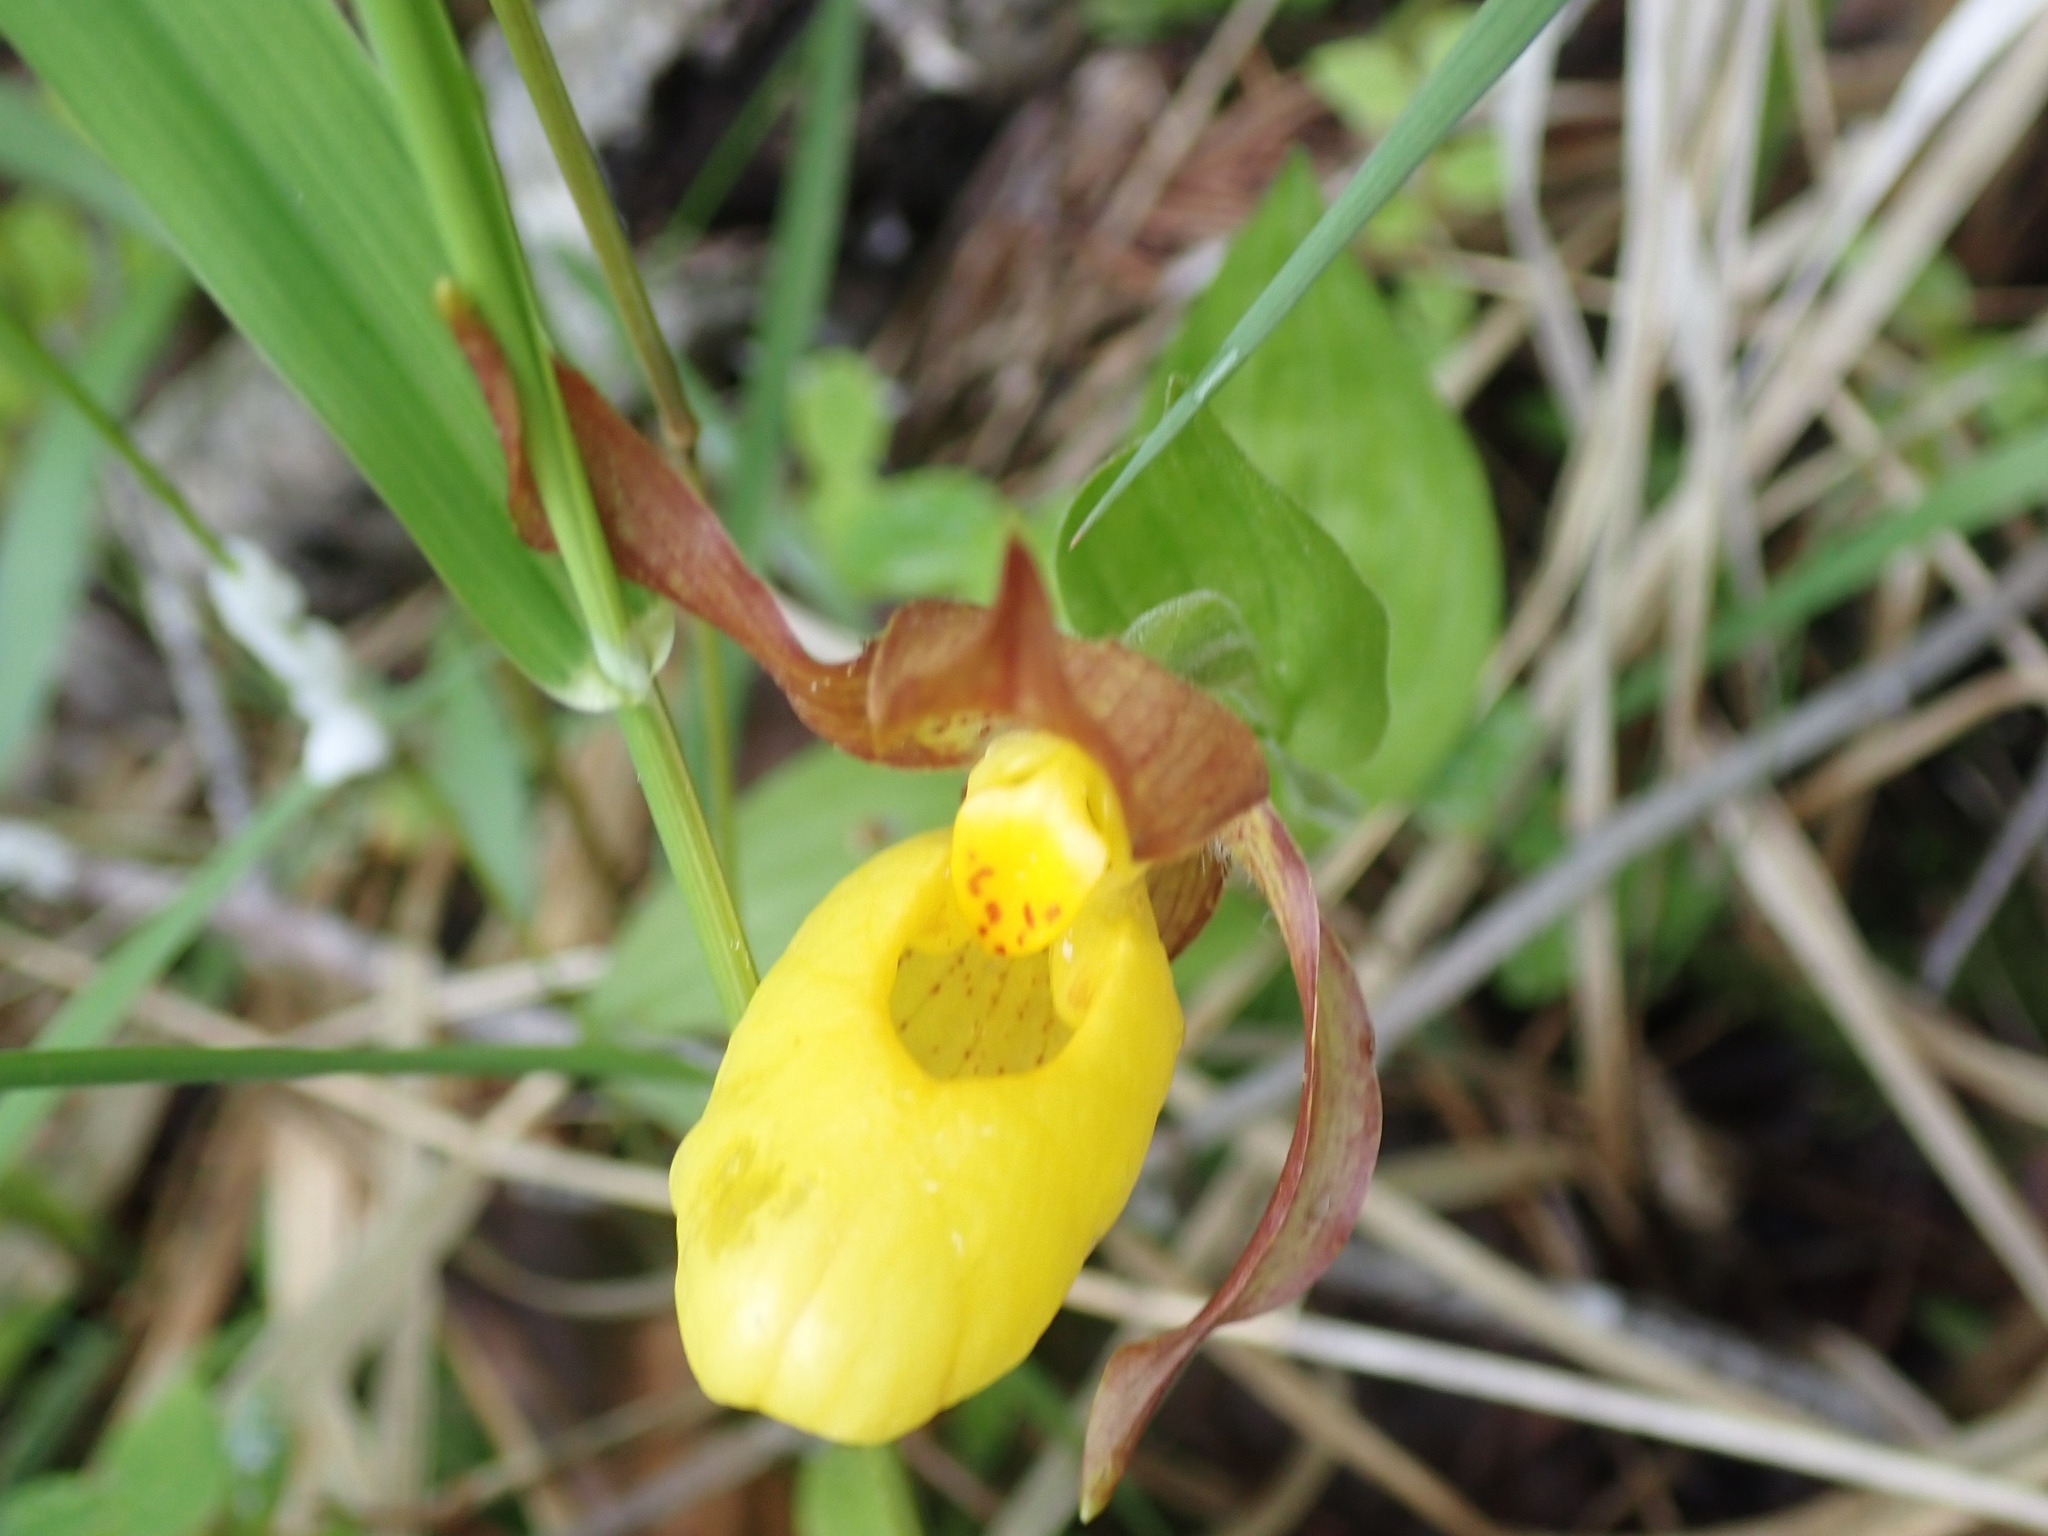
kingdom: Plantae
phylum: Tracheophyta
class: Liliopsida
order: Asparagales
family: Orchidaceae
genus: Cypripedium
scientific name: Cypripedium parviflorum
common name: American yellow lady's-slipper
